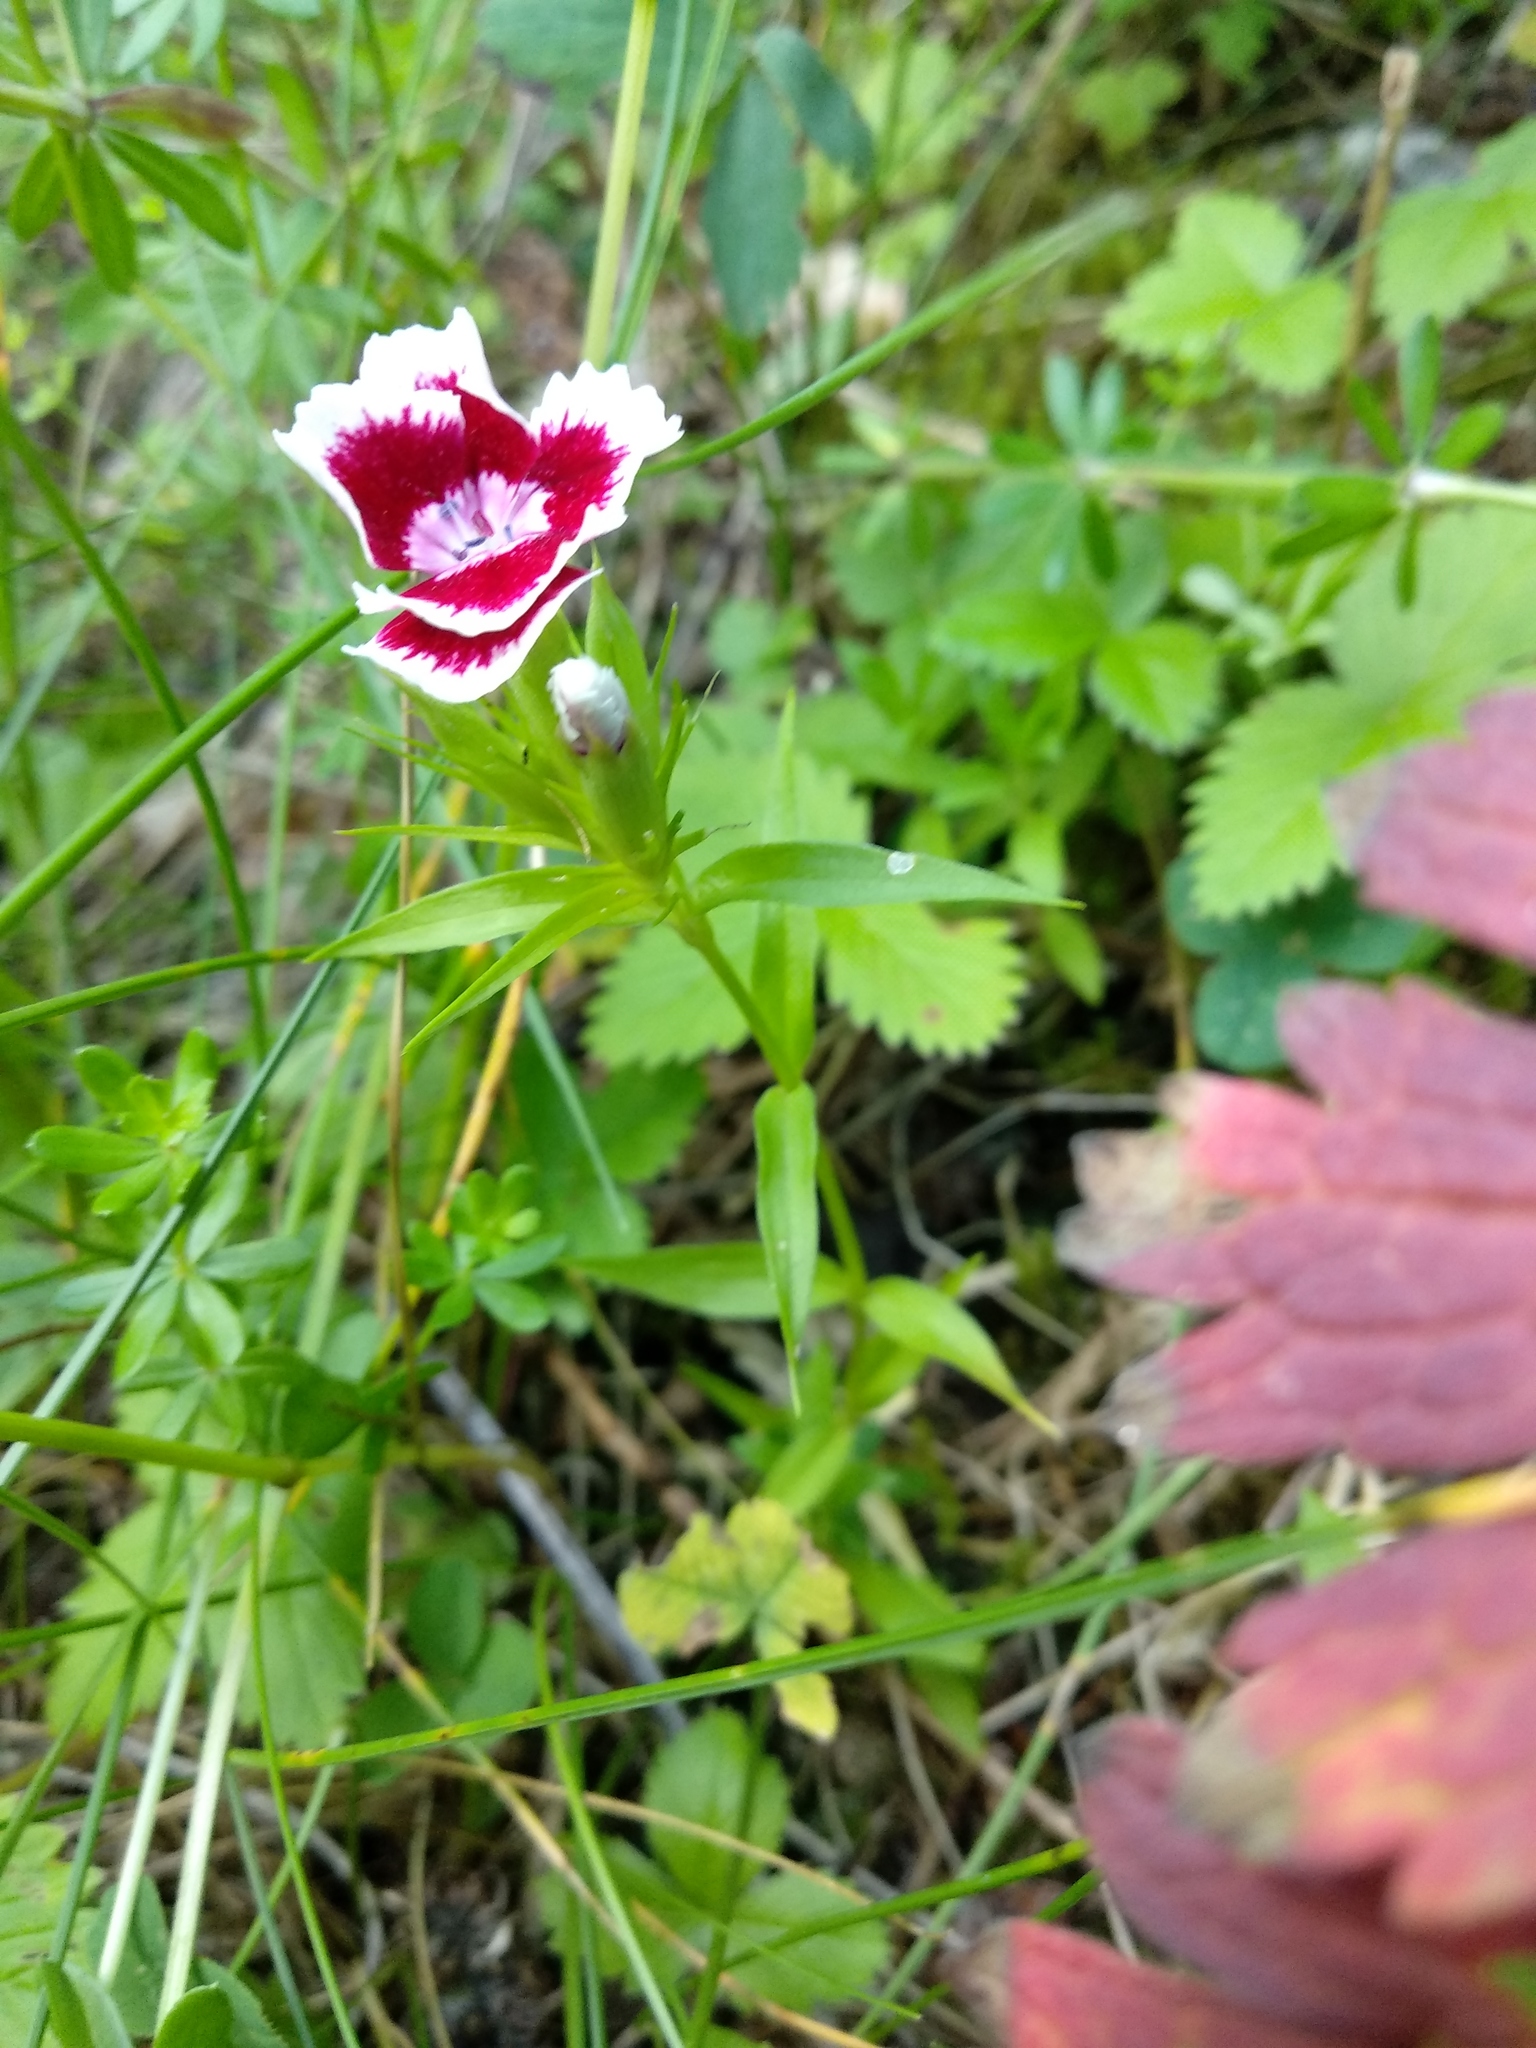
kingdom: Plantae
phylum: Tracheophyta
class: Magnoliopsida
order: Caryophyllales
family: Caryophyllaceae
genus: Dianthus
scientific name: Dianthus barbatus
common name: Sweet-william
